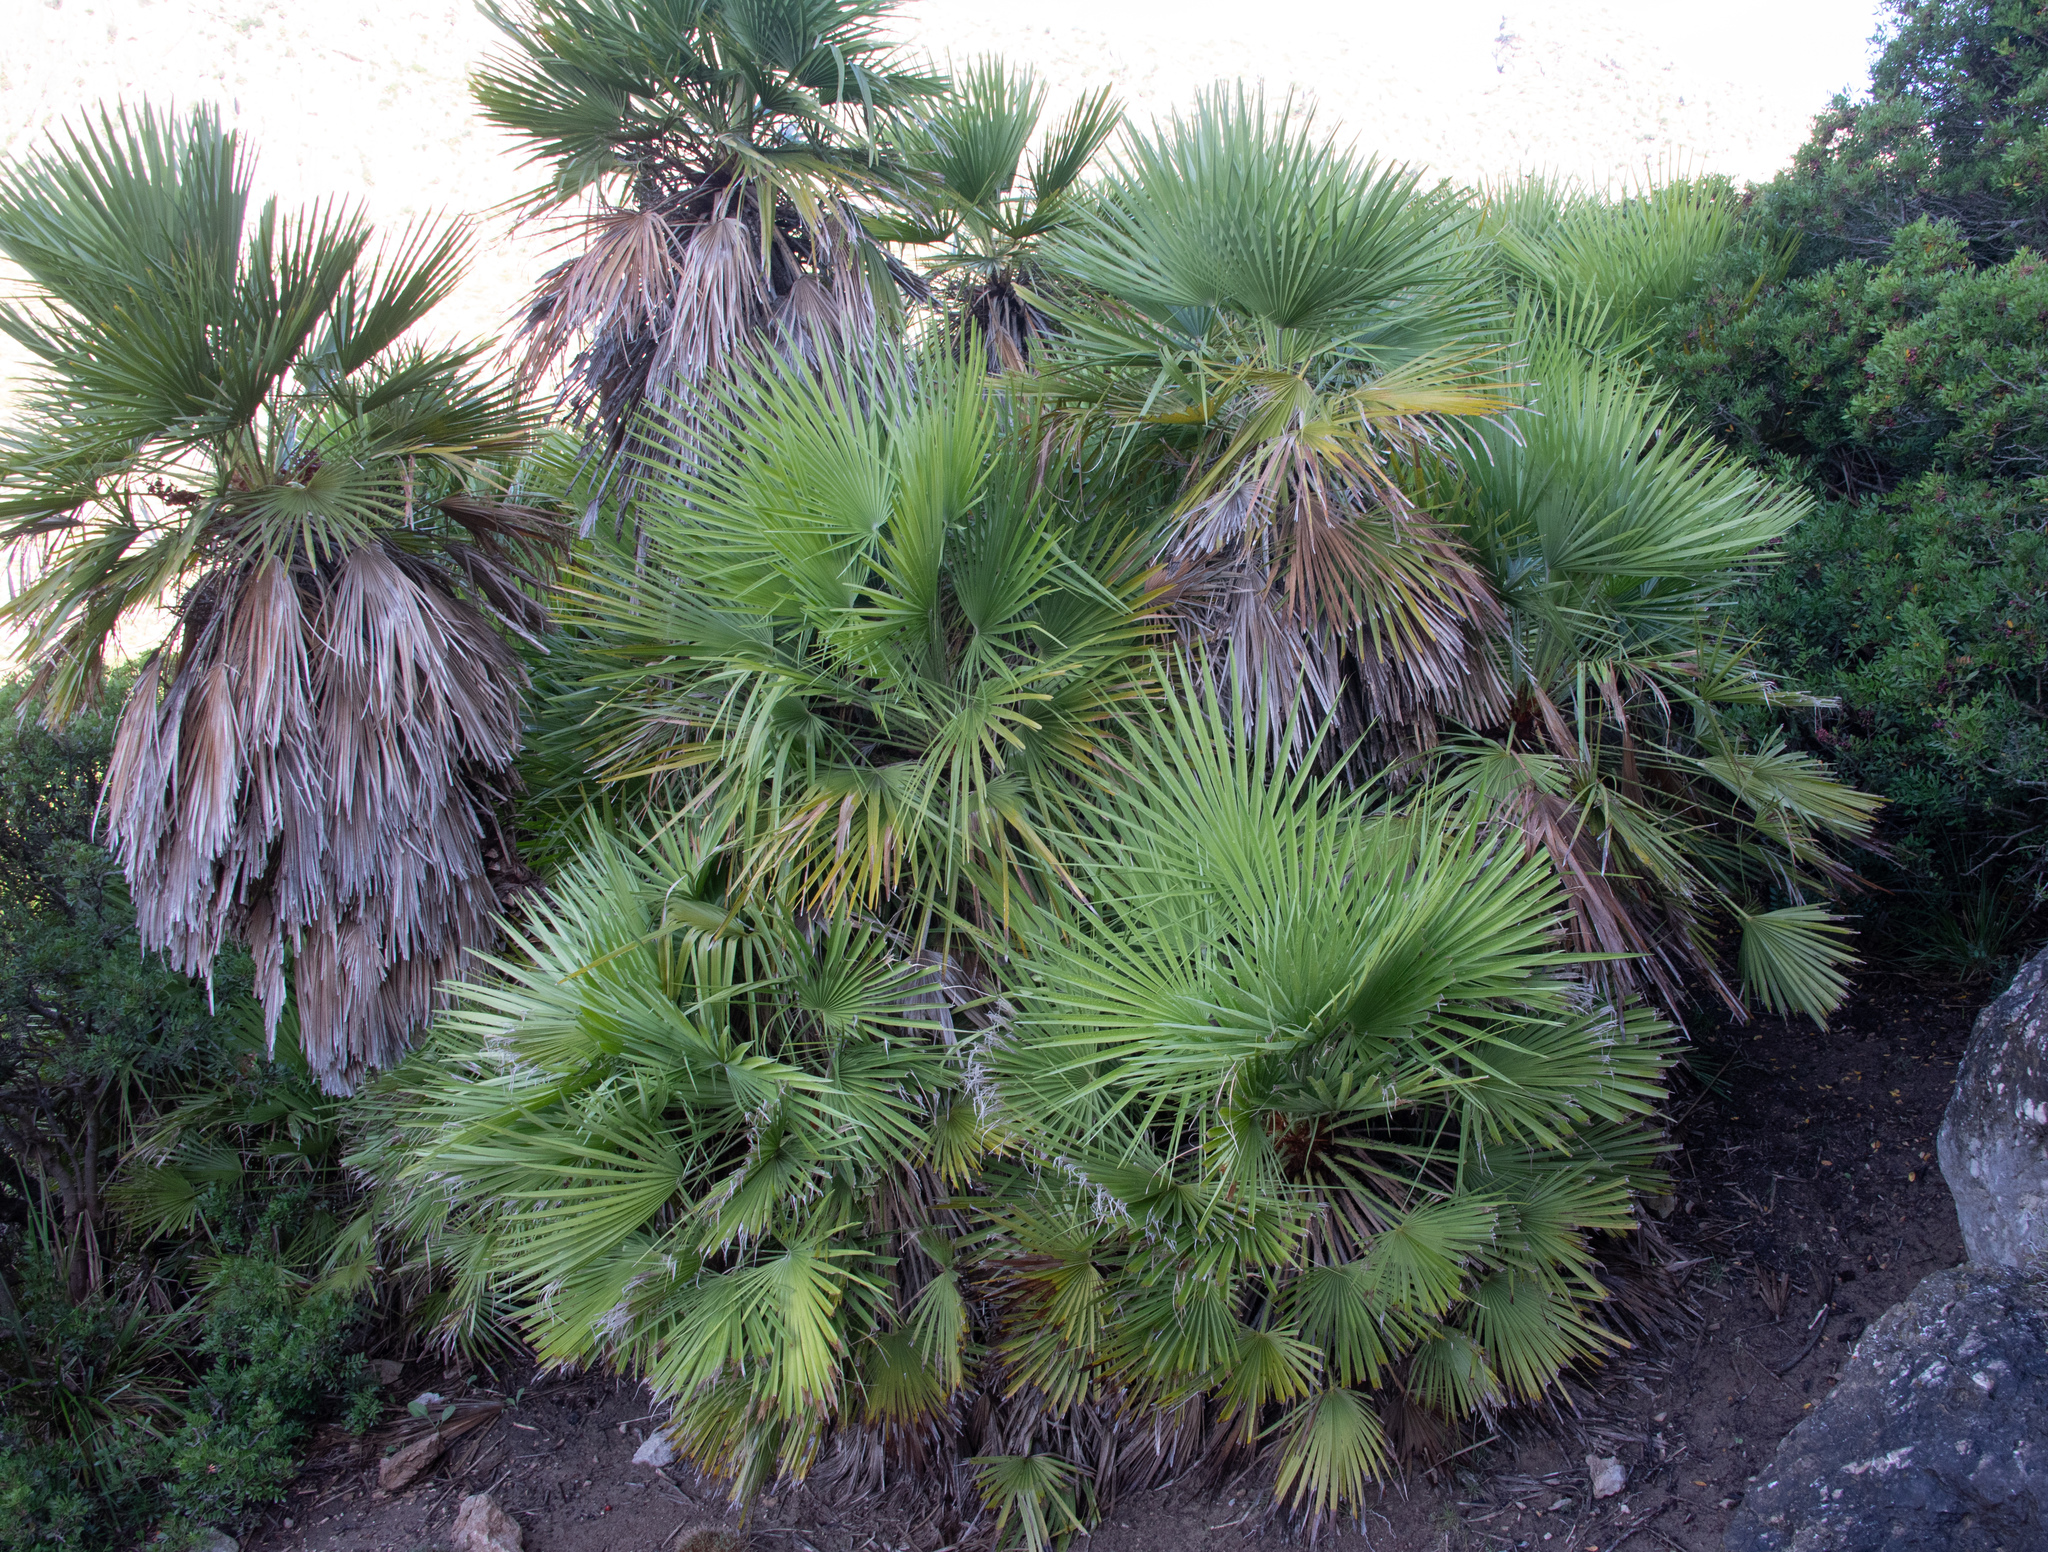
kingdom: Plantae
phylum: Tracheophyta
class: Liliopsida
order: Arecales
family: Arecaceae
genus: Chamaerops
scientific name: Chamaerops humilis
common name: Dwarf fan palm
